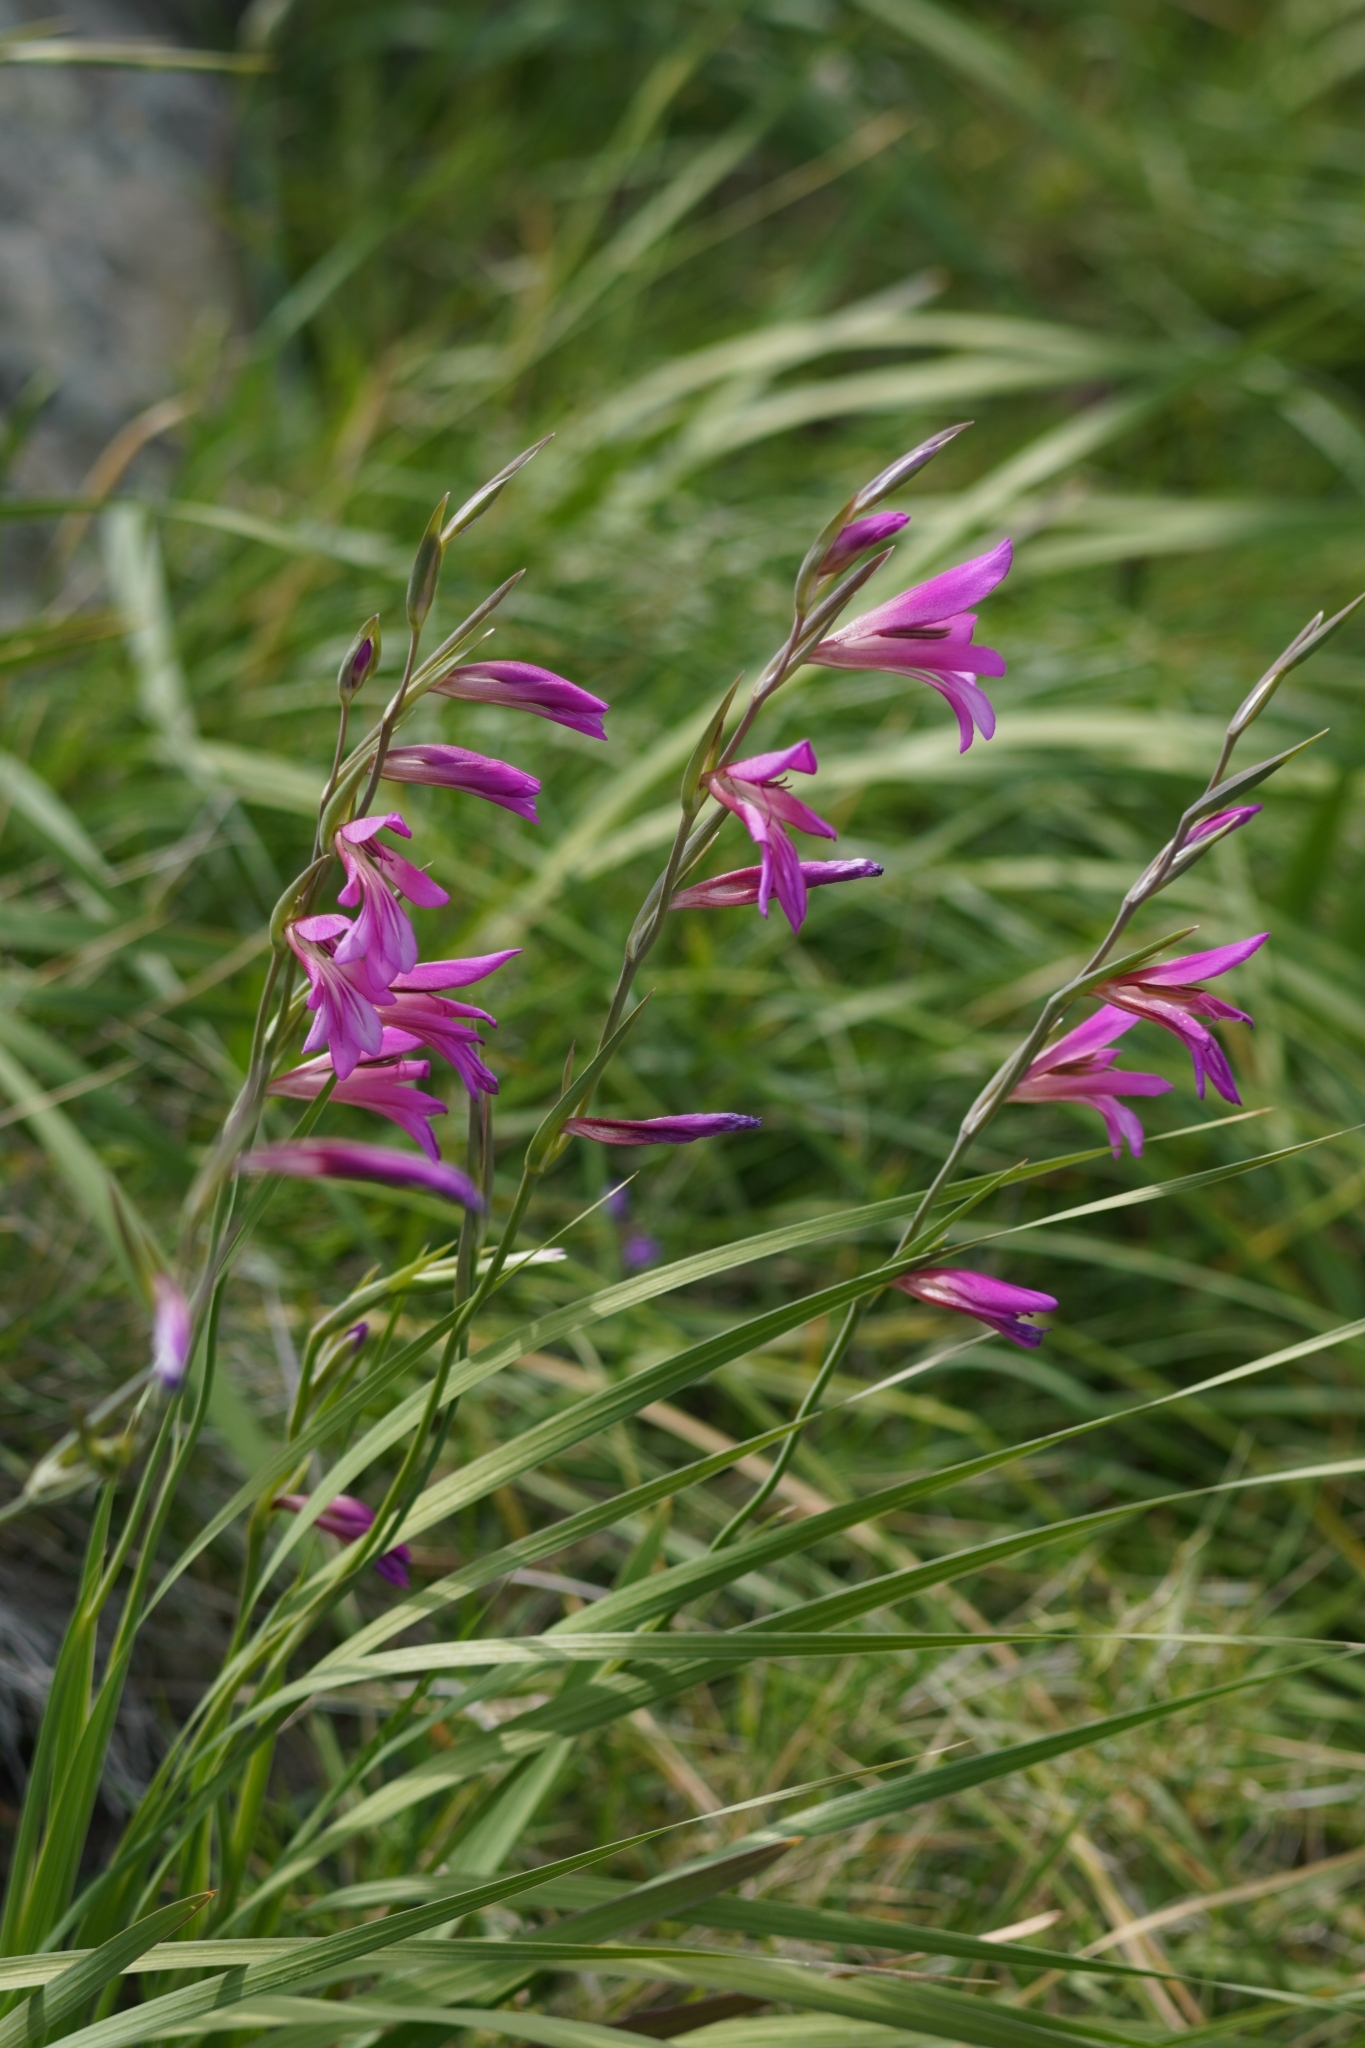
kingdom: Plantae
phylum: Tracheophyta
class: Liliopsida
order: Asparagales
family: Iridaceae
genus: Gladiolus
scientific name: Gladiolus italicus
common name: Field gladiolus
